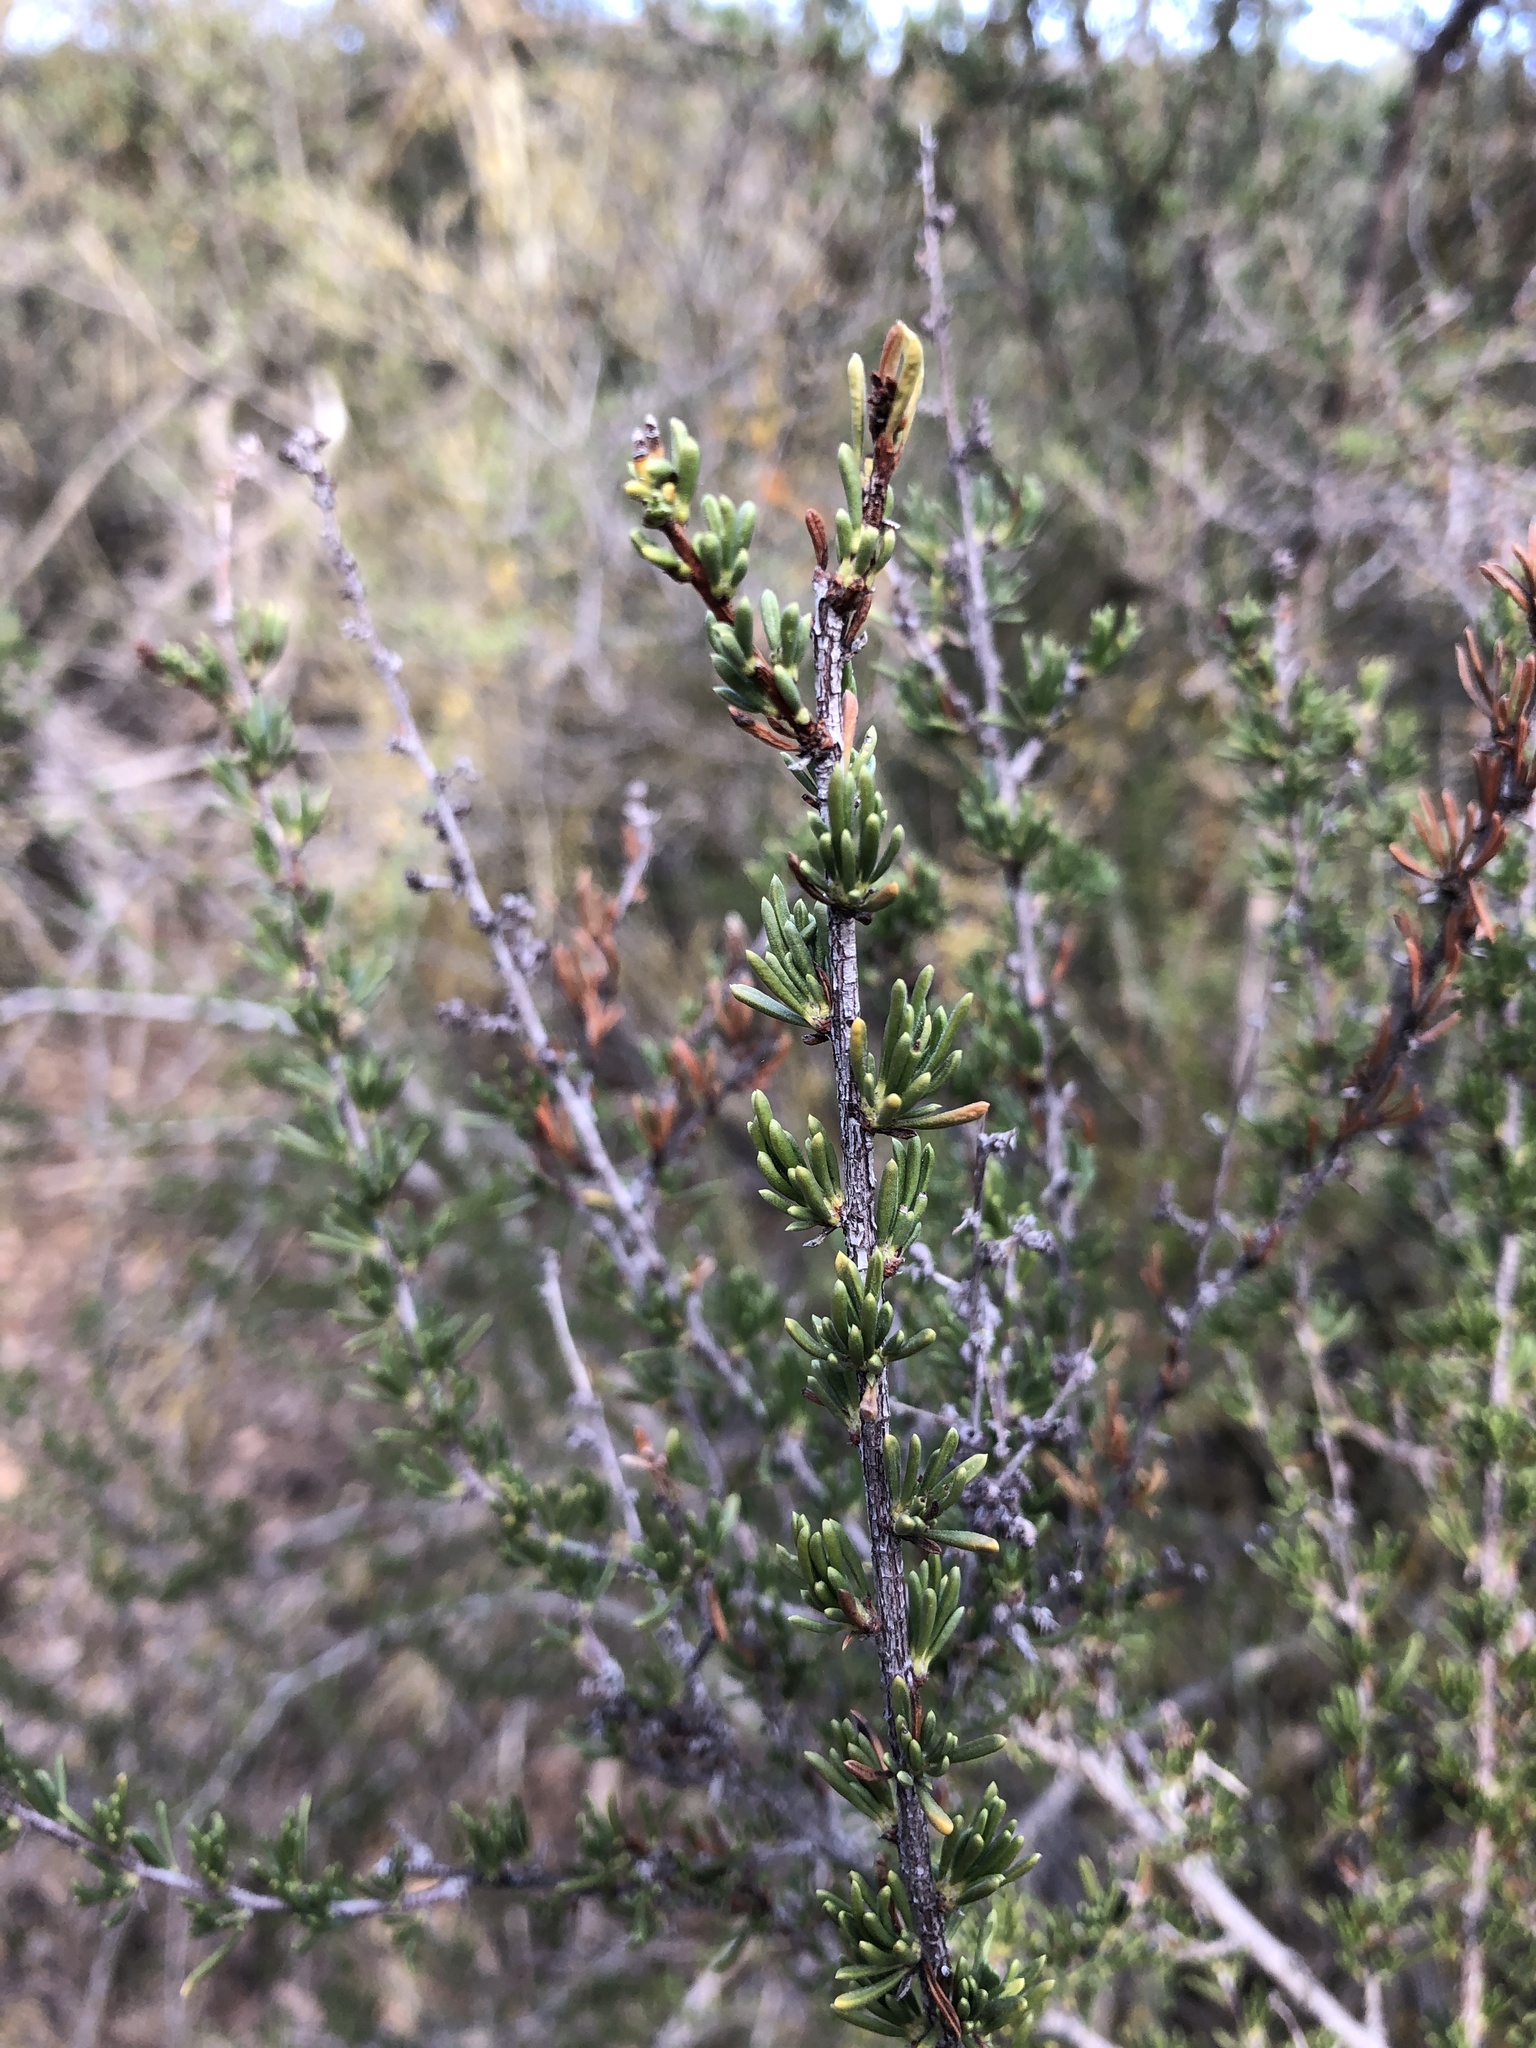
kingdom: Plantae
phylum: Tracheophyta
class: Magnoliopsida
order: Rosales
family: Rosaceae
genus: Adenostoma
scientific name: Adenostoma fasciculatum
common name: Chamise
